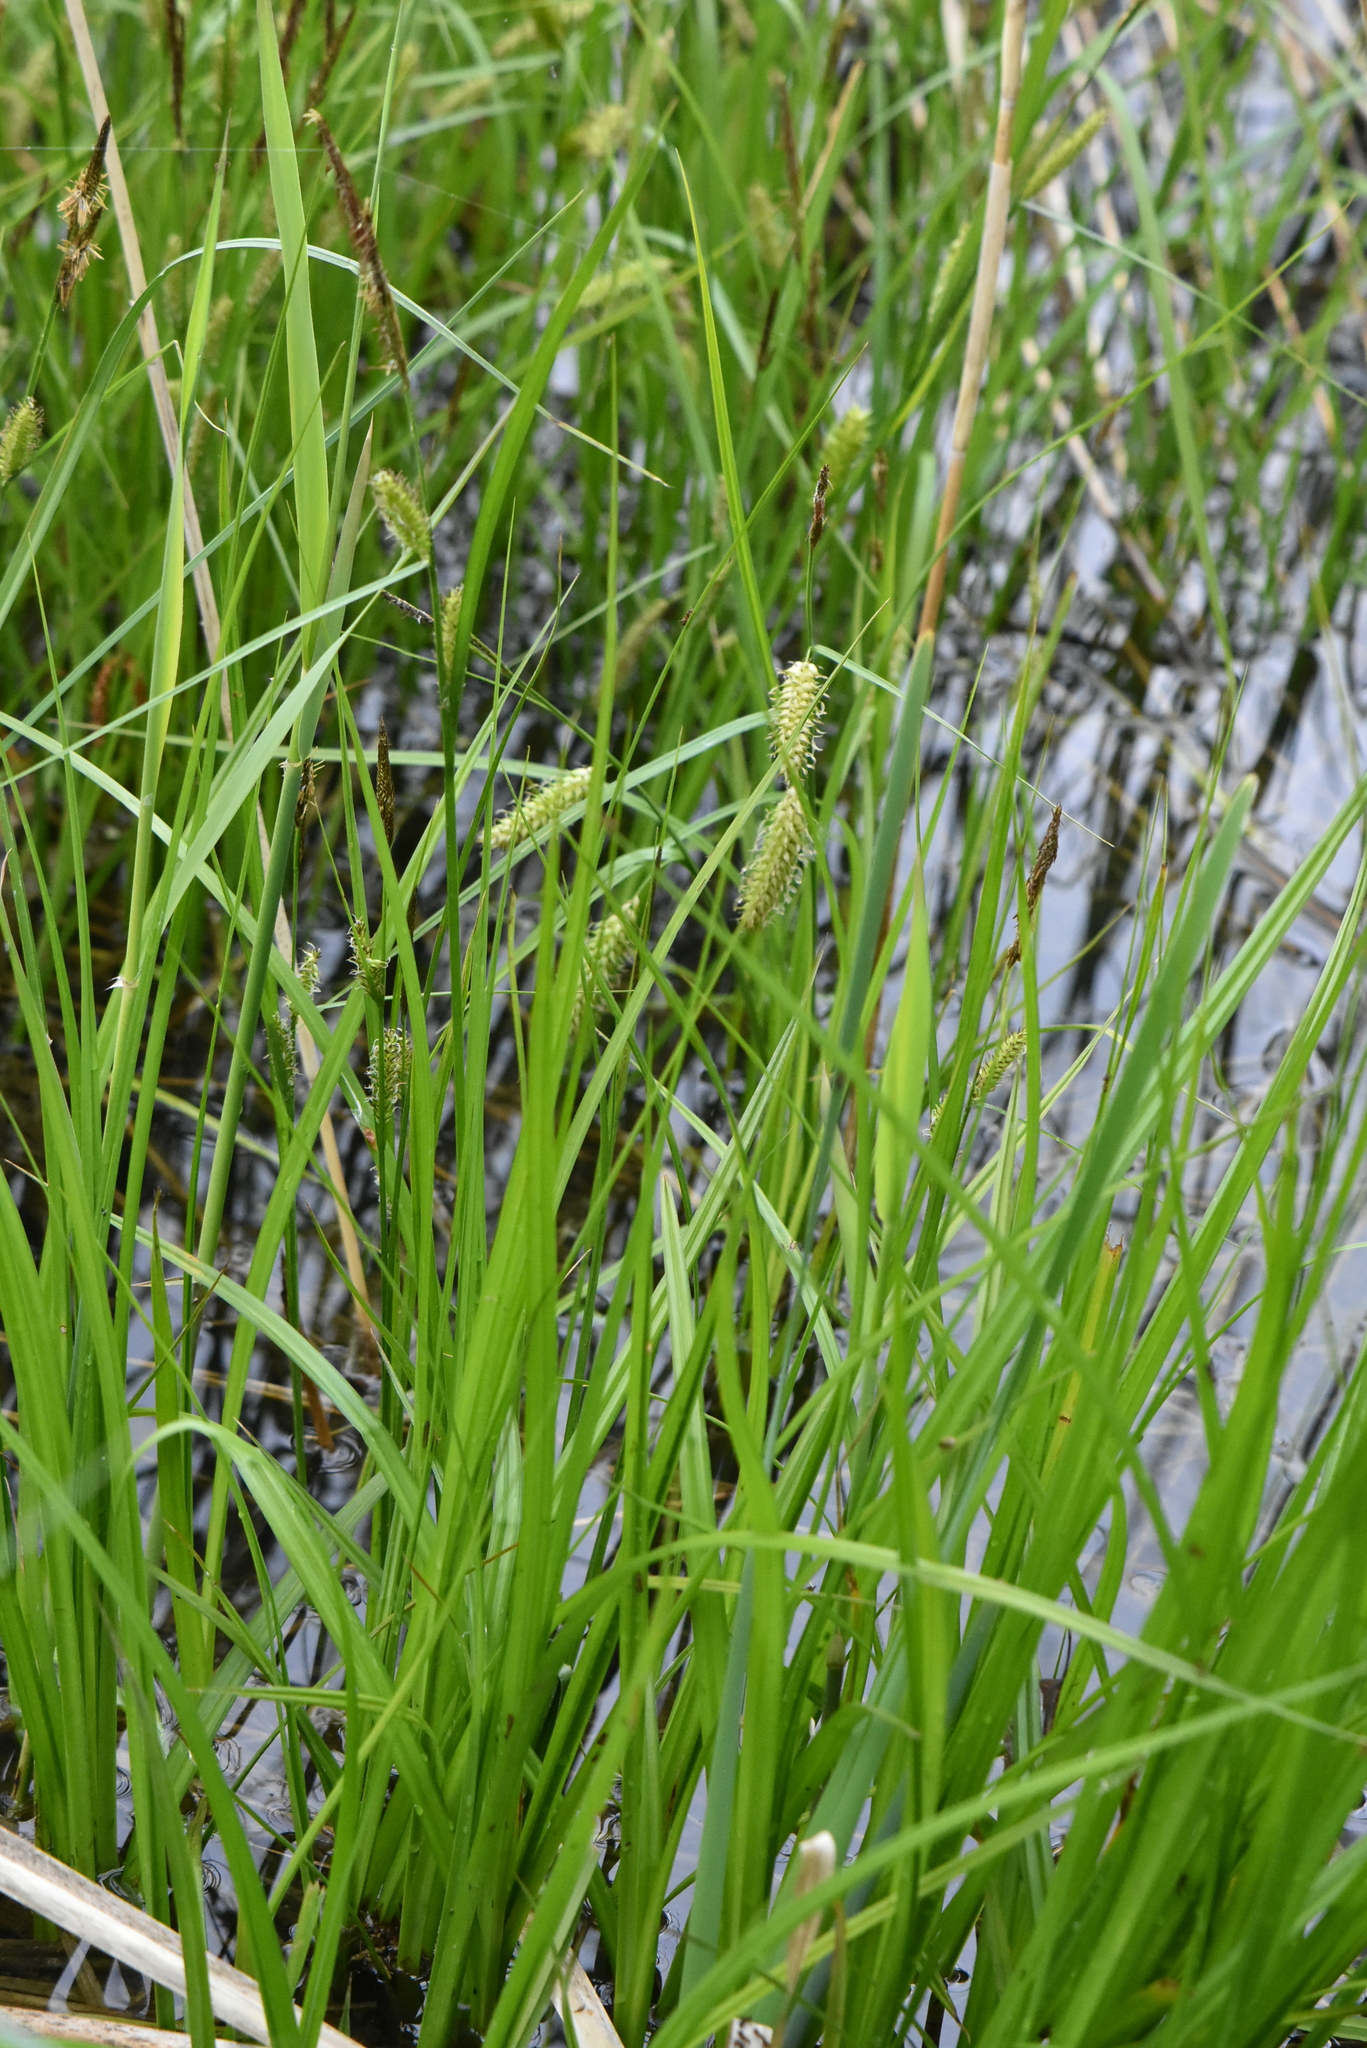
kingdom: Plantae
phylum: Tracheophyta
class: Liliopsida
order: Poales
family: Cyperaceae
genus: Carex
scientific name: Carex vesicaria
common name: Bladder-sedge
